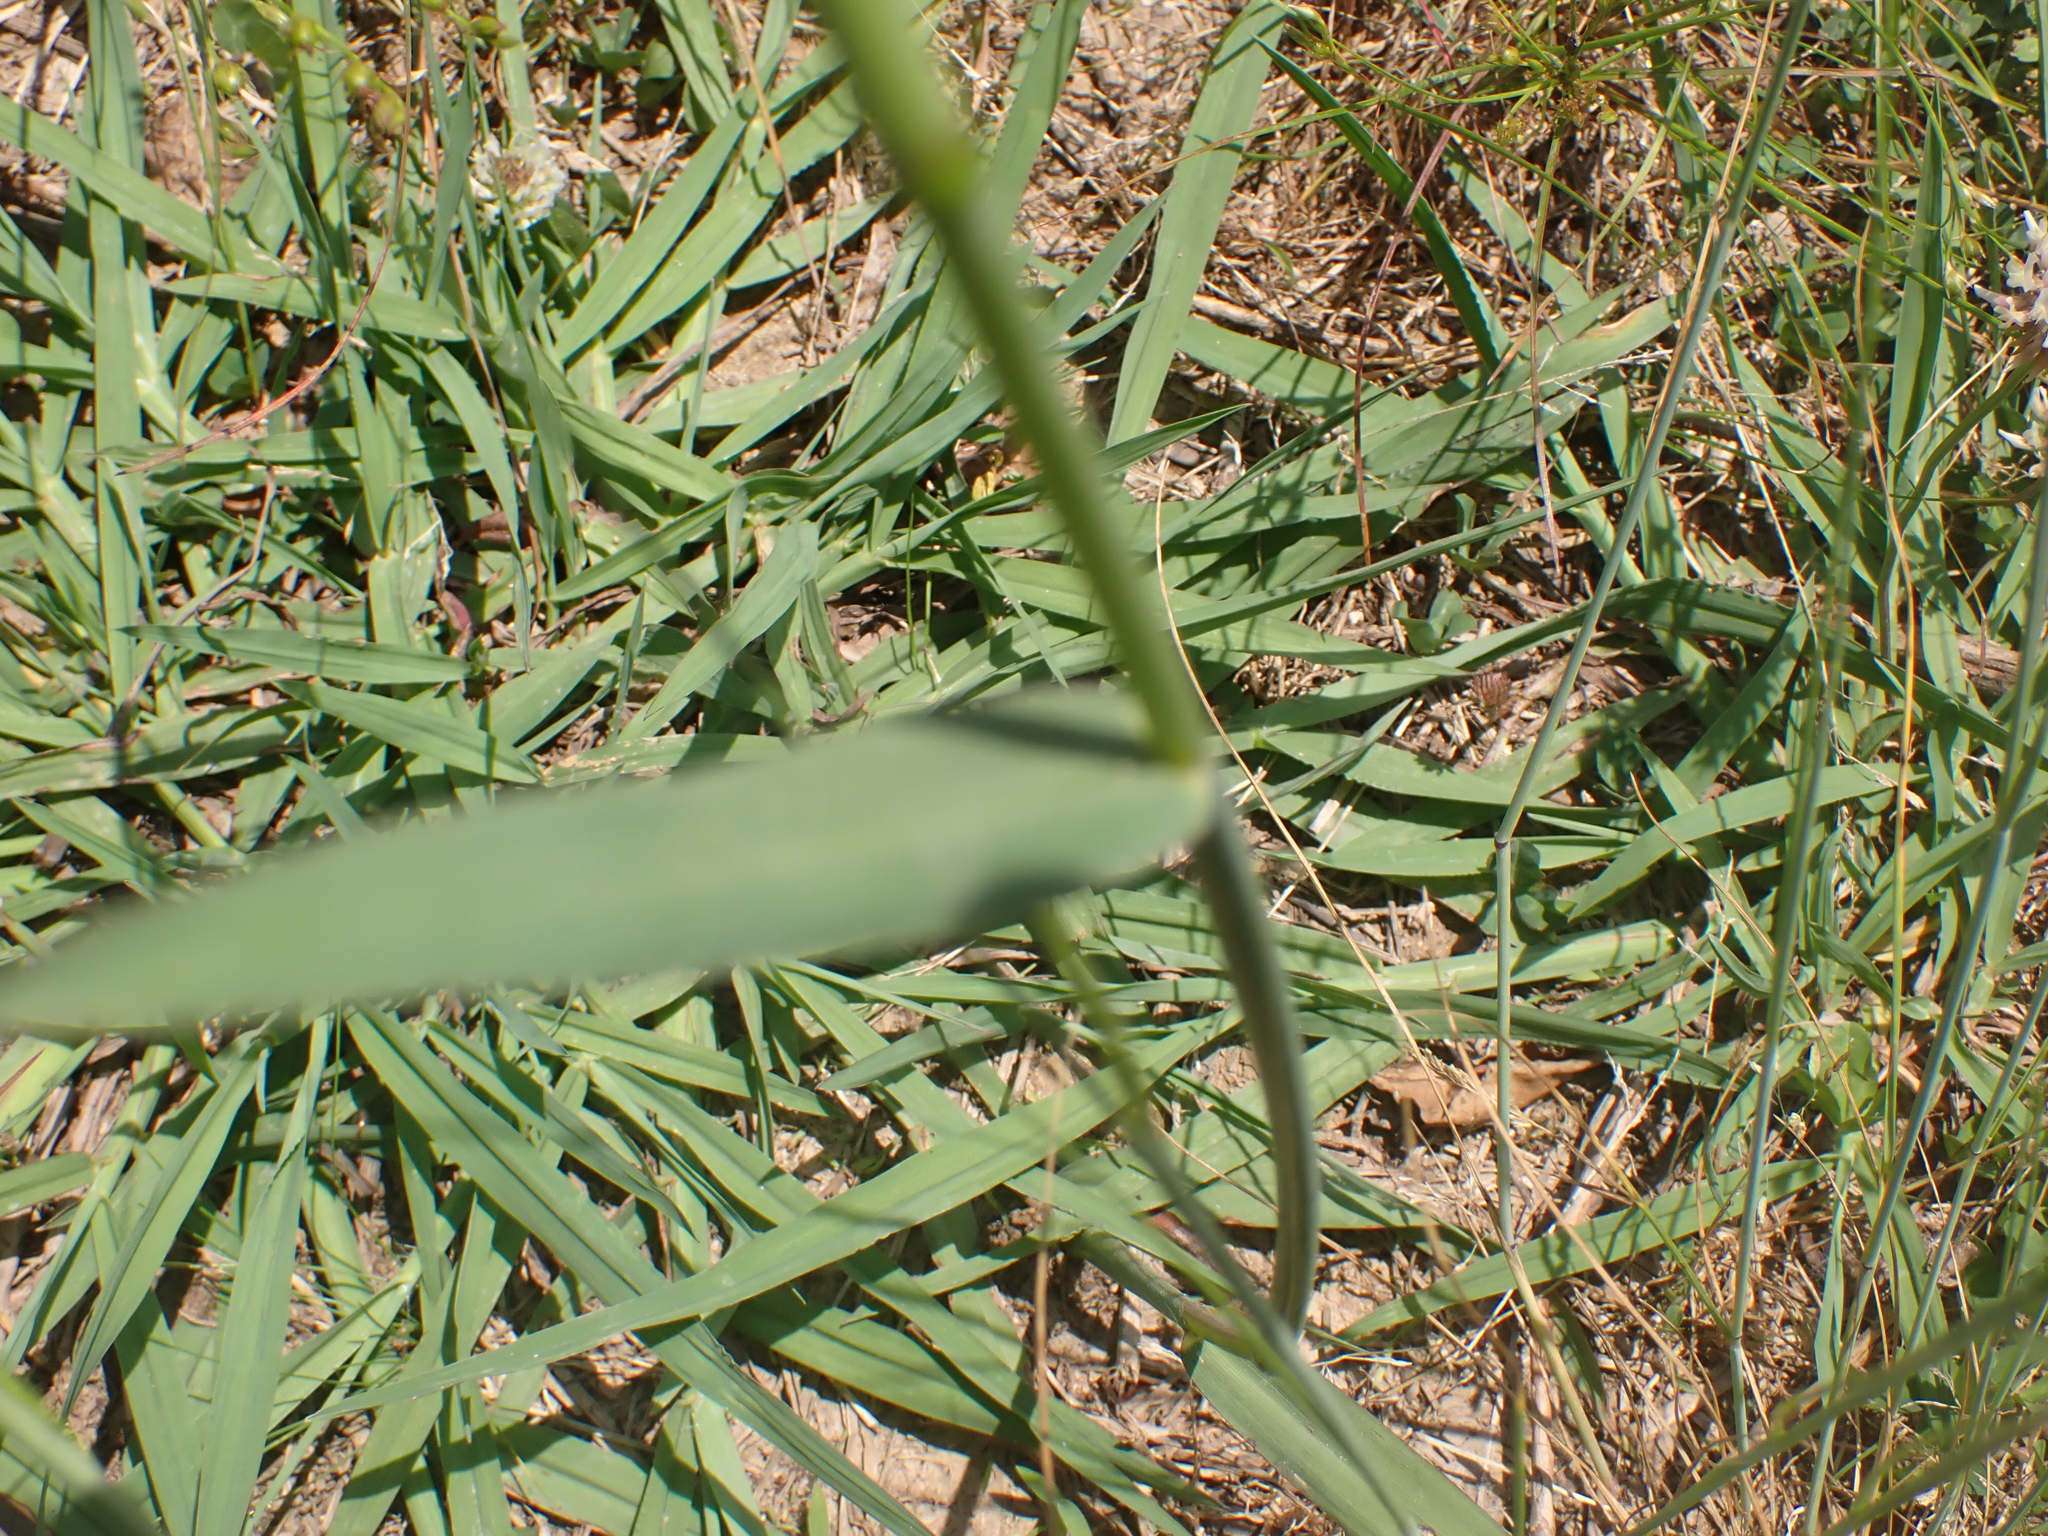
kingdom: Plantae
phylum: Tracheophyta
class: Liliopsida
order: Poales
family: Poaceae
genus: Paspalum
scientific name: Paspalum dilatatum
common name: Dallisgrass
